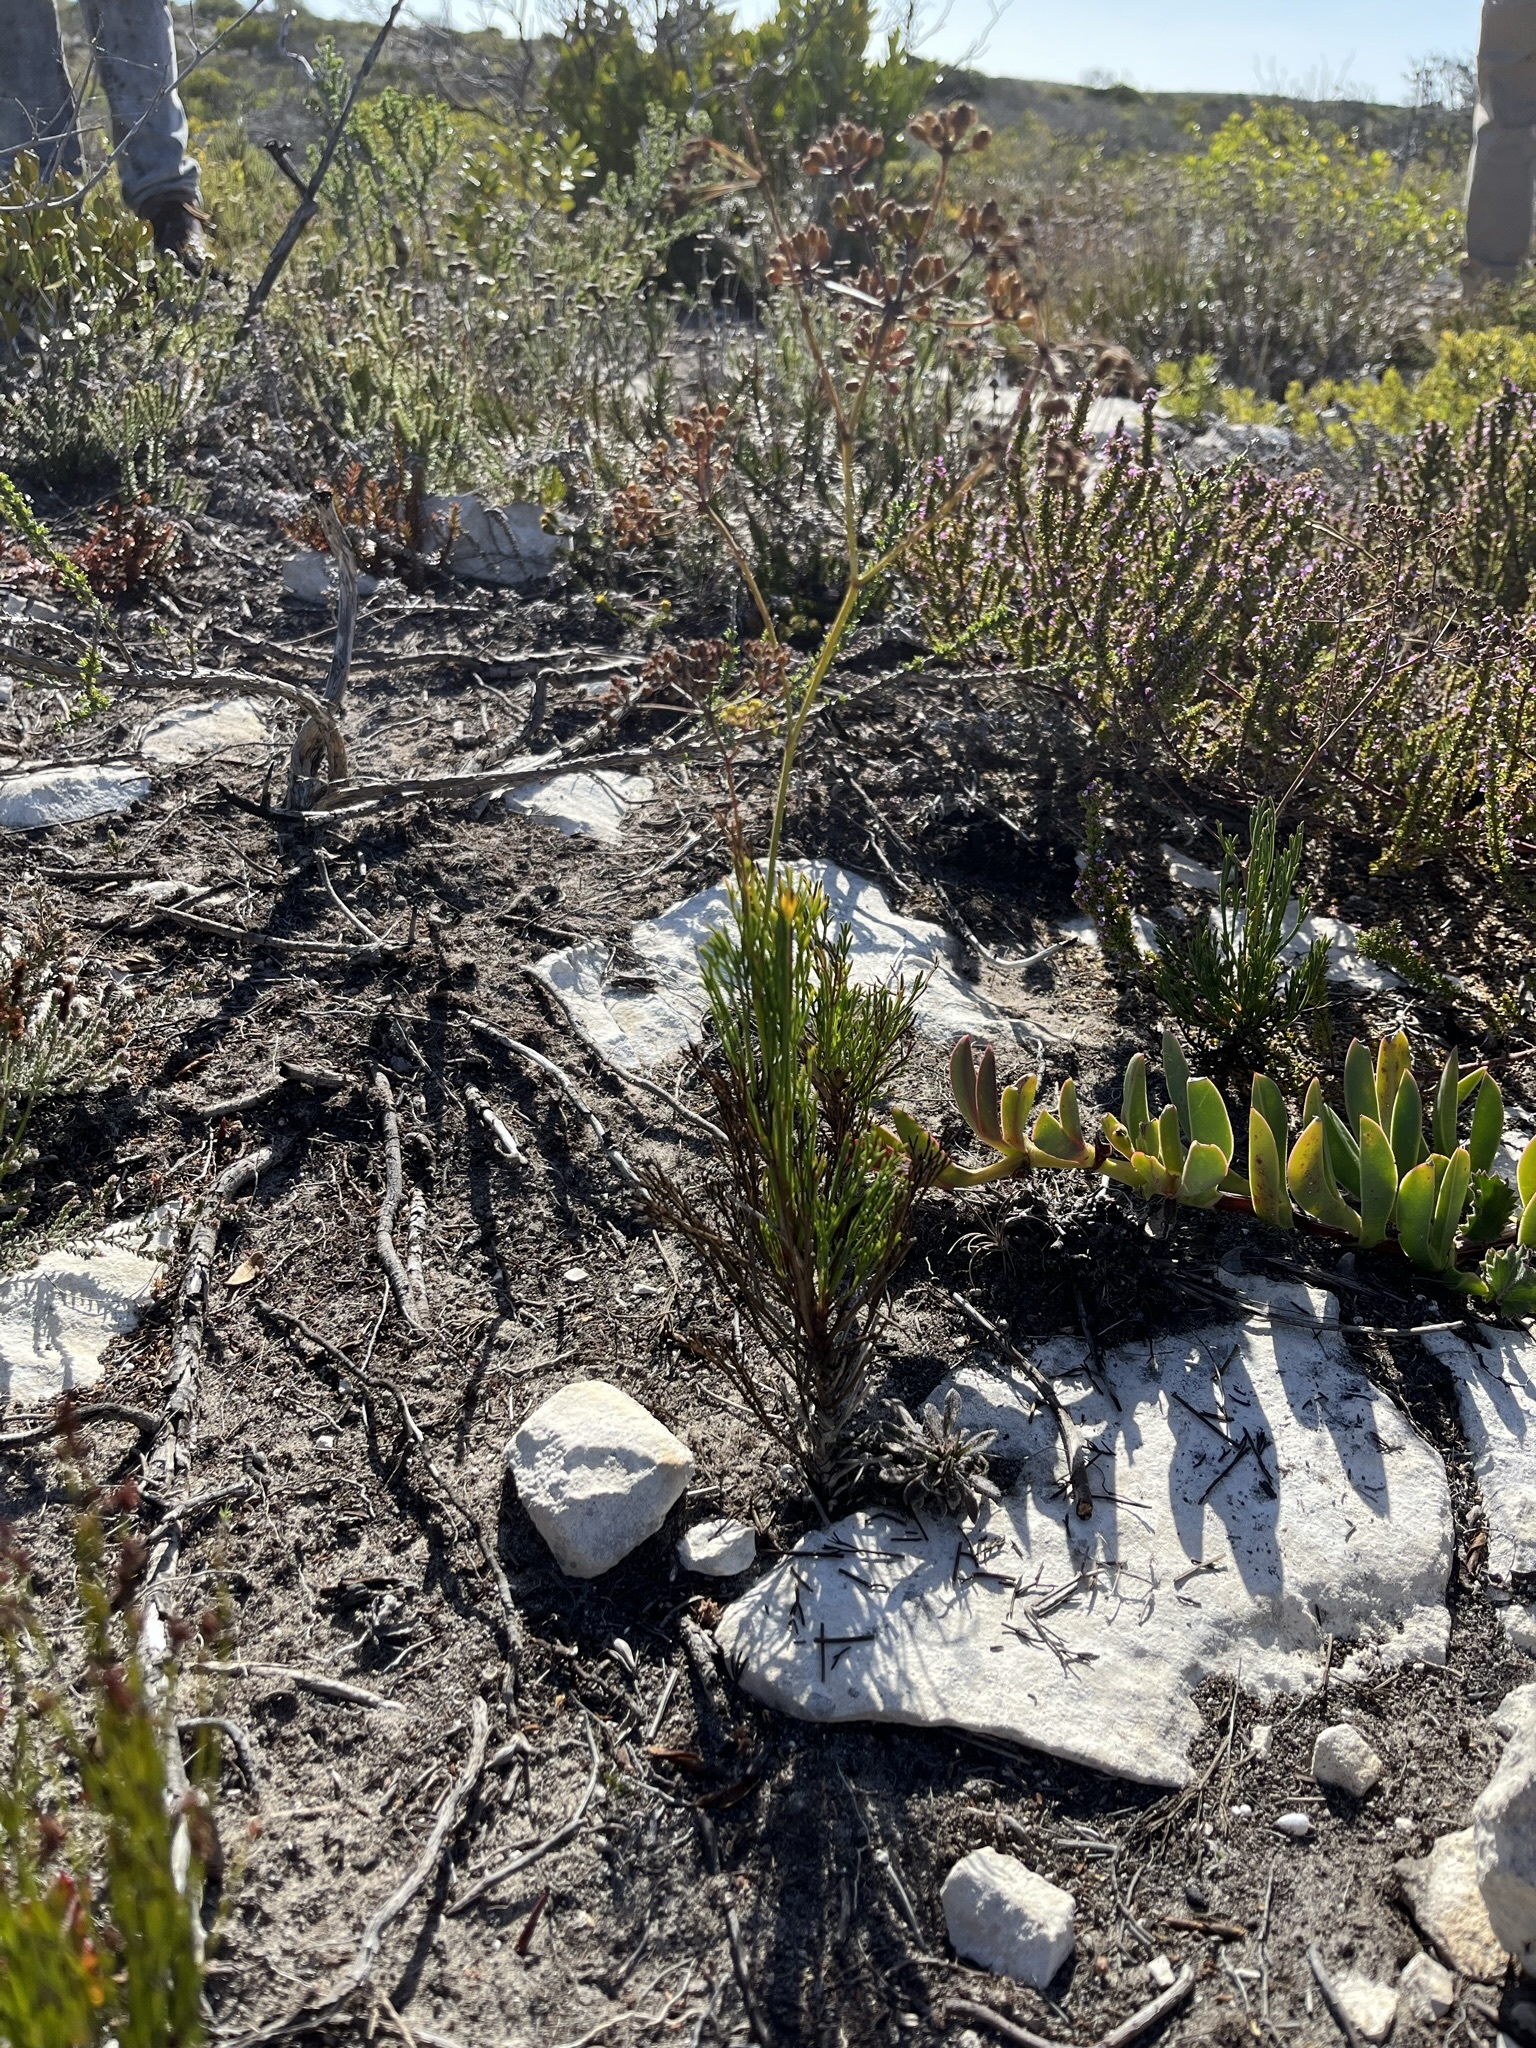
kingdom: Plantae
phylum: Tracheophyta
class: Magnoliopsida
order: Apiales
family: Apiaceae
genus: Anginon
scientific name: Anginon pumilum
